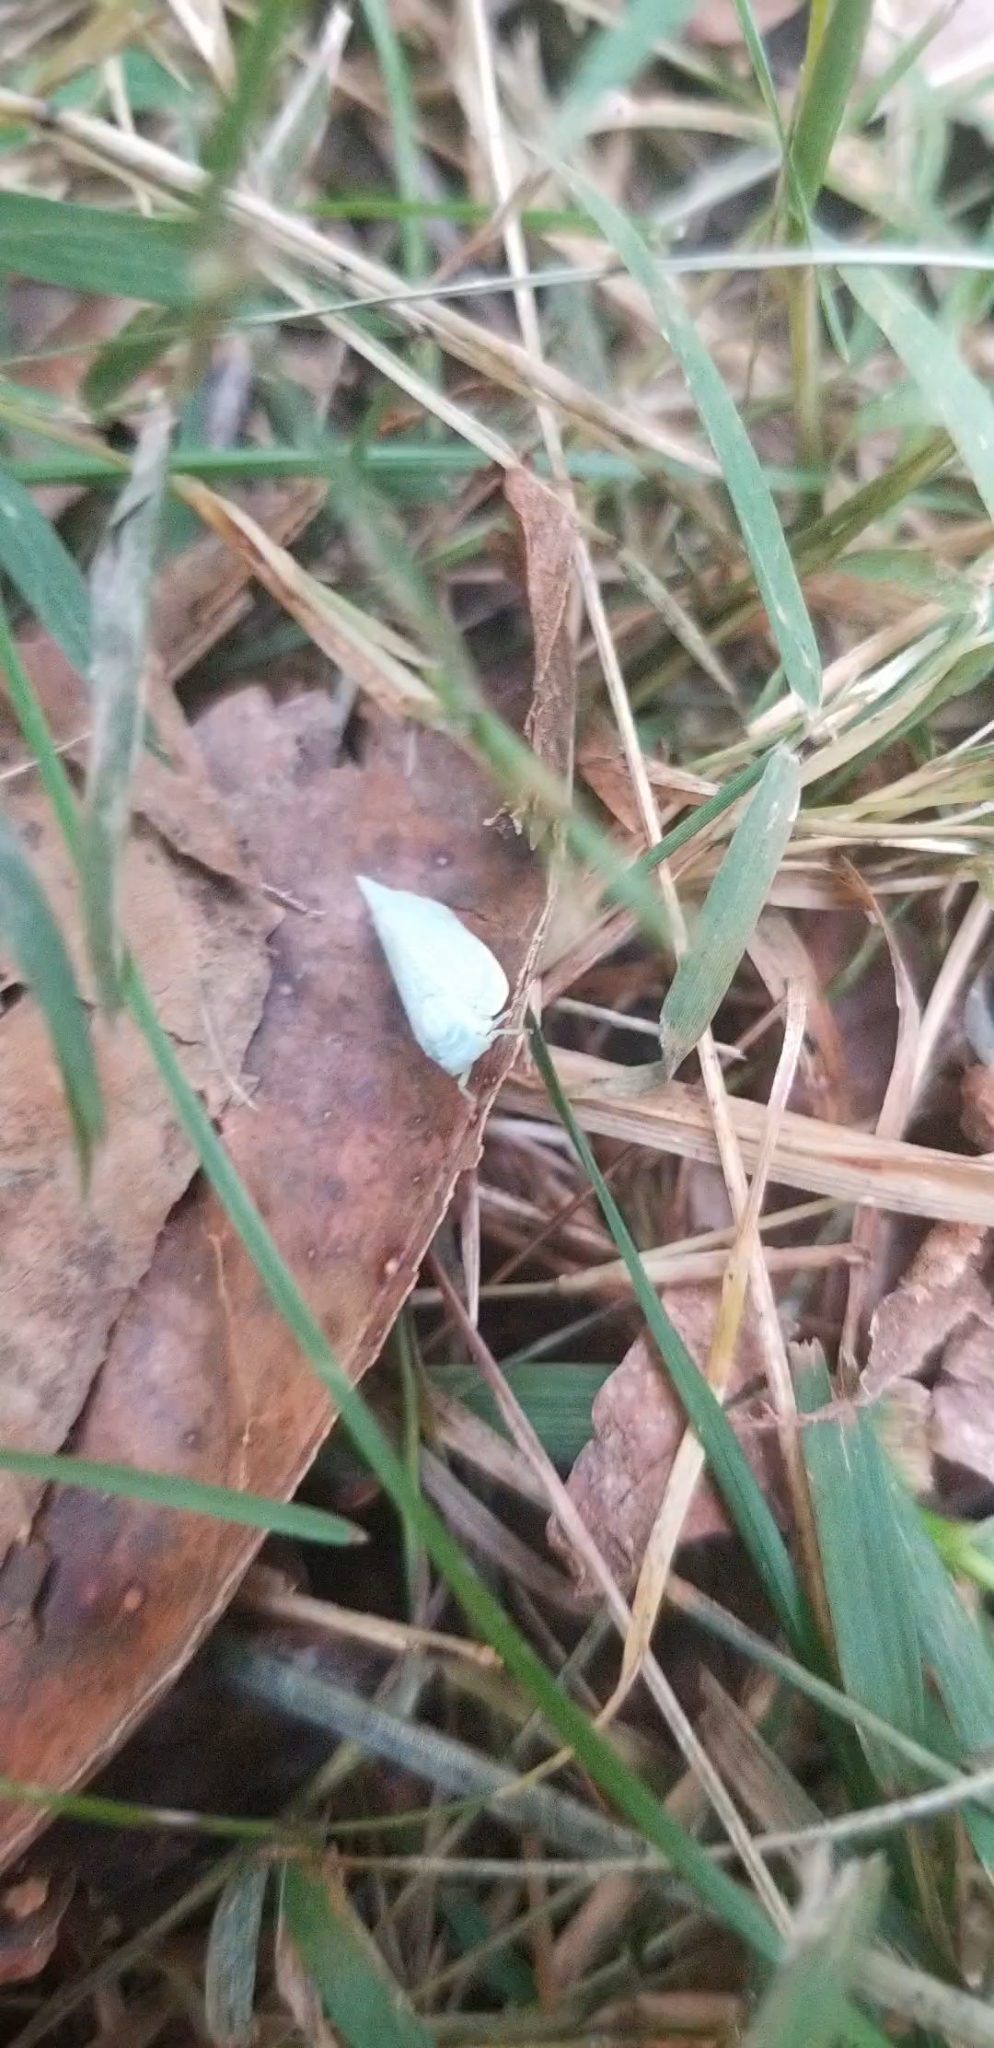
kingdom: Animalia
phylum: Arthropoda
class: Insecta
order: Hemiptera
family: Flatidae
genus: Flatormenis
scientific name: Flatormenis proxima
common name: Northern flatid planthopper
